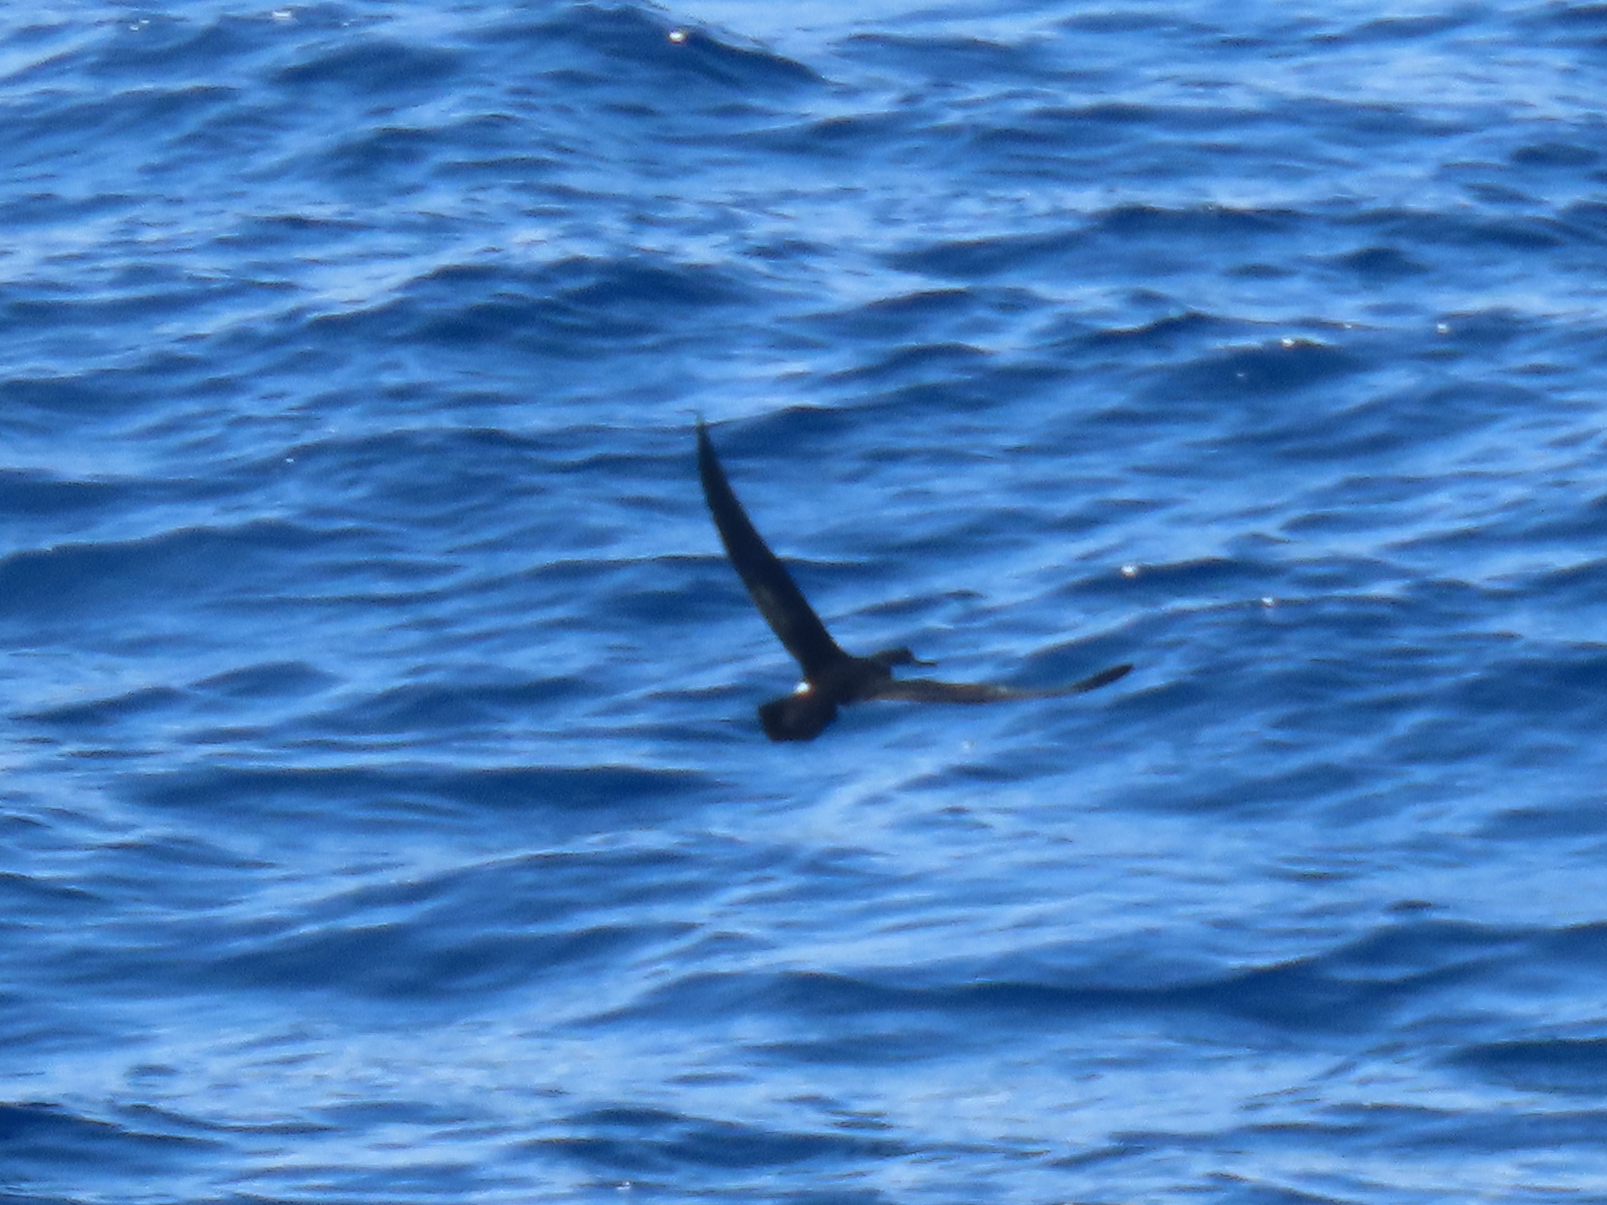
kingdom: Animalia
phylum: Chordata
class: Aves
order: Procellariiformes
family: Procellariidae
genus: Puffinus
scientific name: Puffinus lherminieri
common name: Audubon's shearwater
